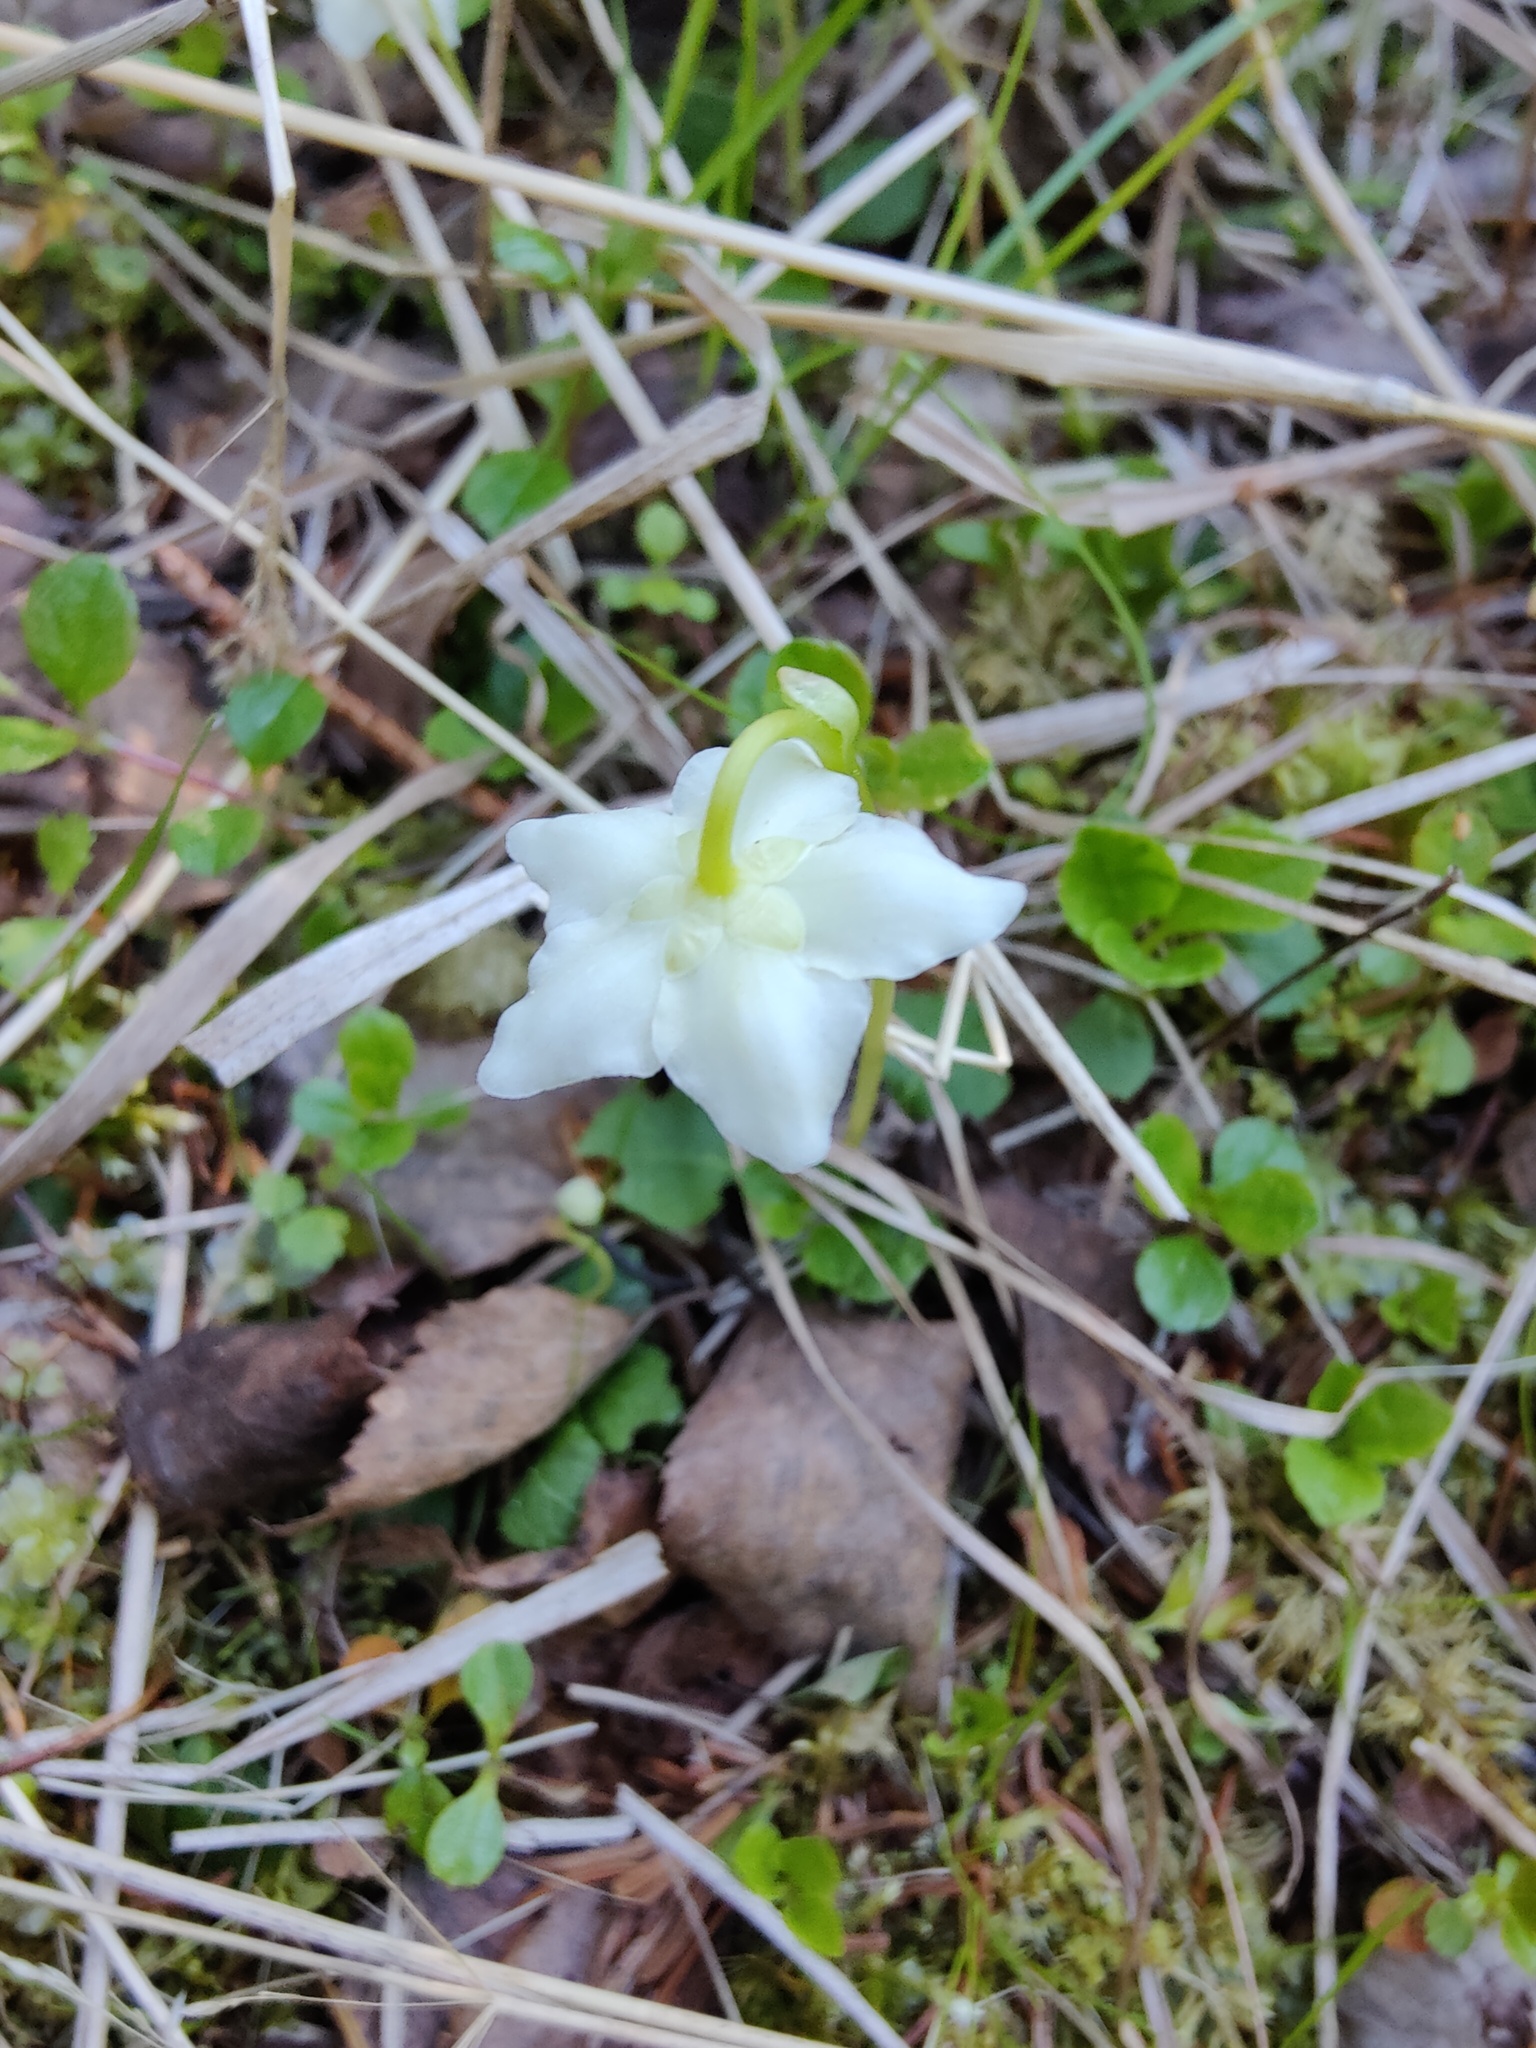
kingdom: Plantae
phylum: Tracheophyta
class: Magnoliopsida
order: Ericales
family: Ericaceae
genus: Moneses
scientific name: Moneses uniflora
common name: One-flowered wintergreen
